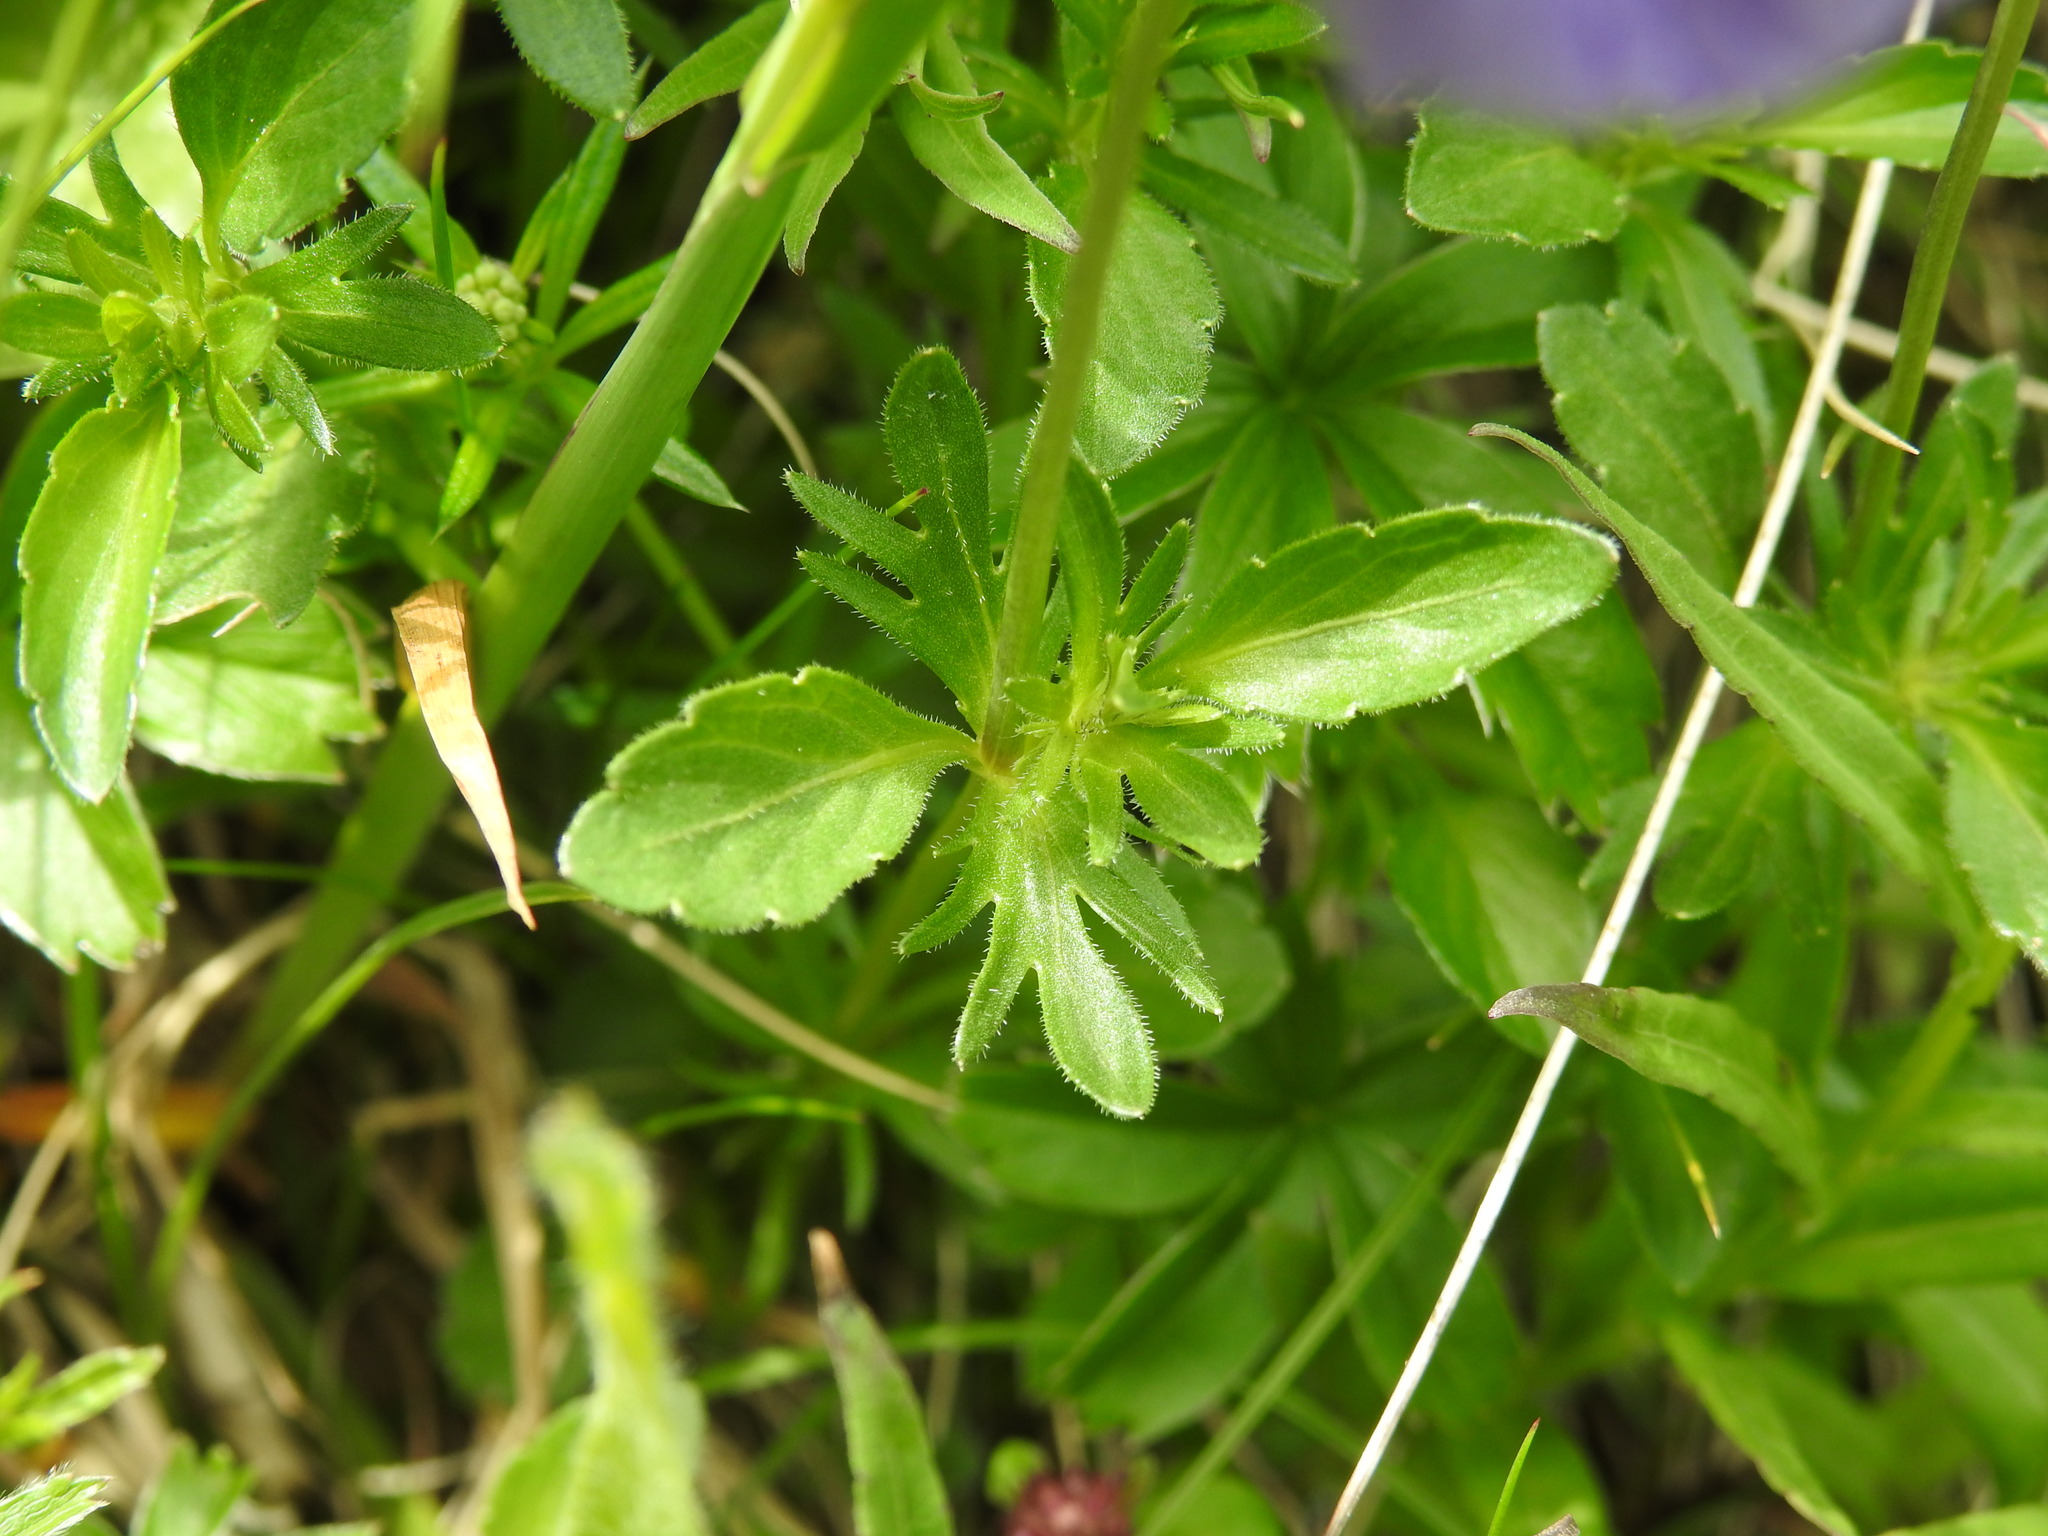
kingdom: Plantae
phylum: Tracheophyta
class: Magnoliopsida
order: Malpighiales
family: Violaceae
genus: Viola
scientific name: Viola lutea
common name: Mountain pansy
